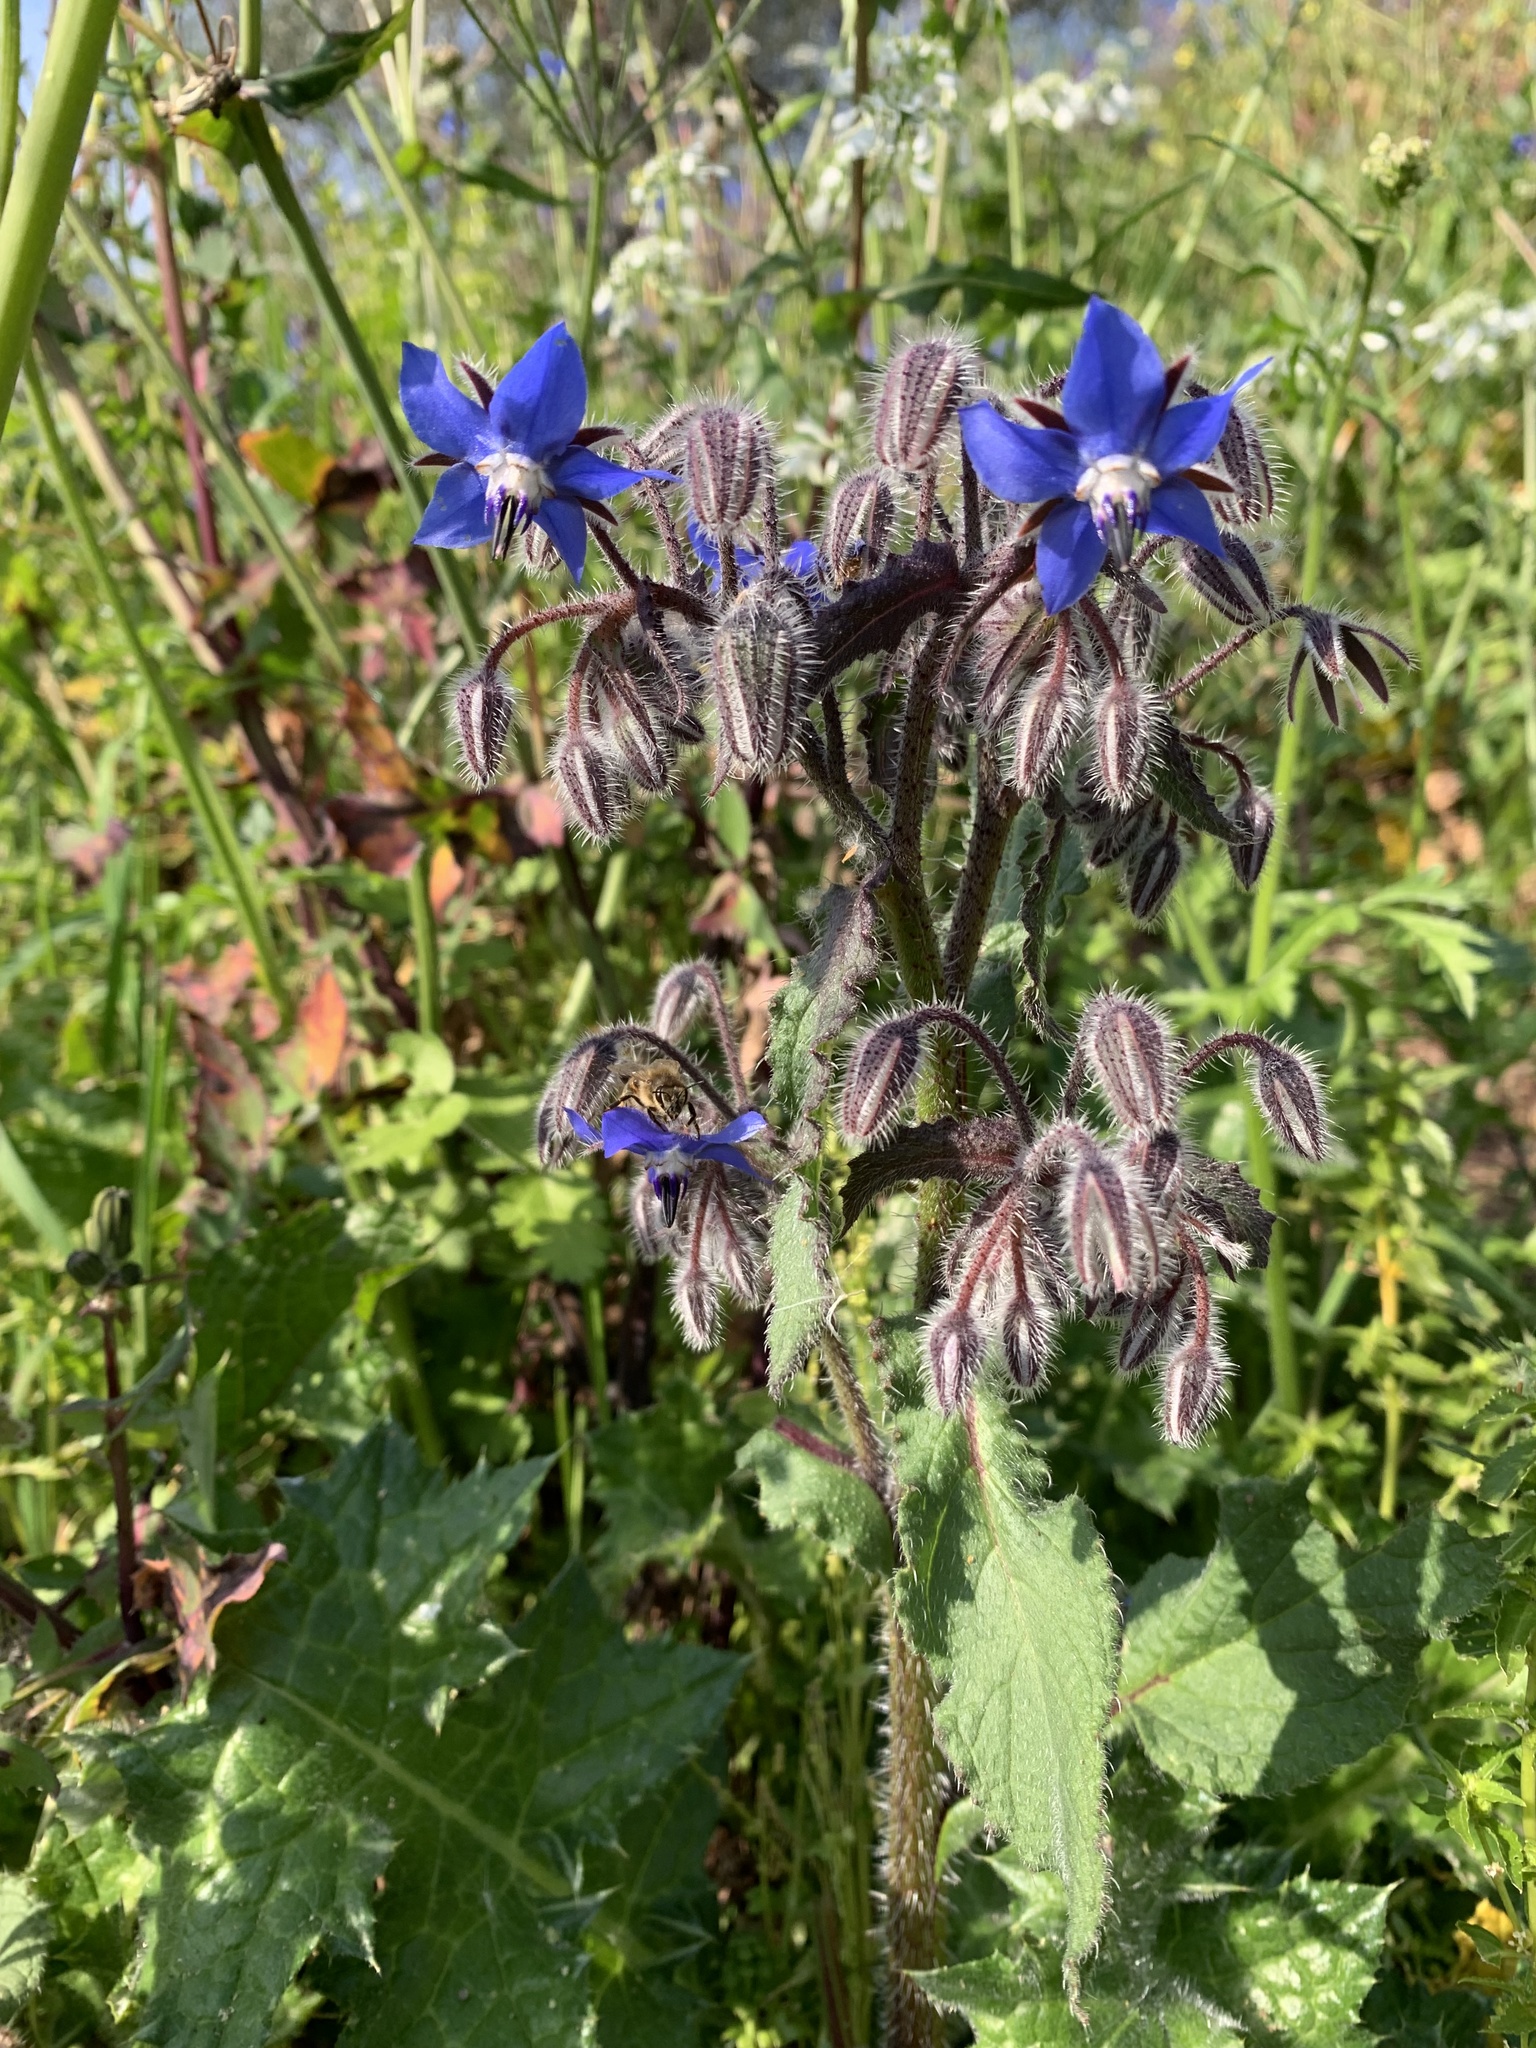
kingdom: Plantae
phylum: Tracheophyta
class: Magnoliopsida
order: Boraginales
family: Boraginaceae
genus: Borago
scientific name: Borago officinalis
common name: Borage
